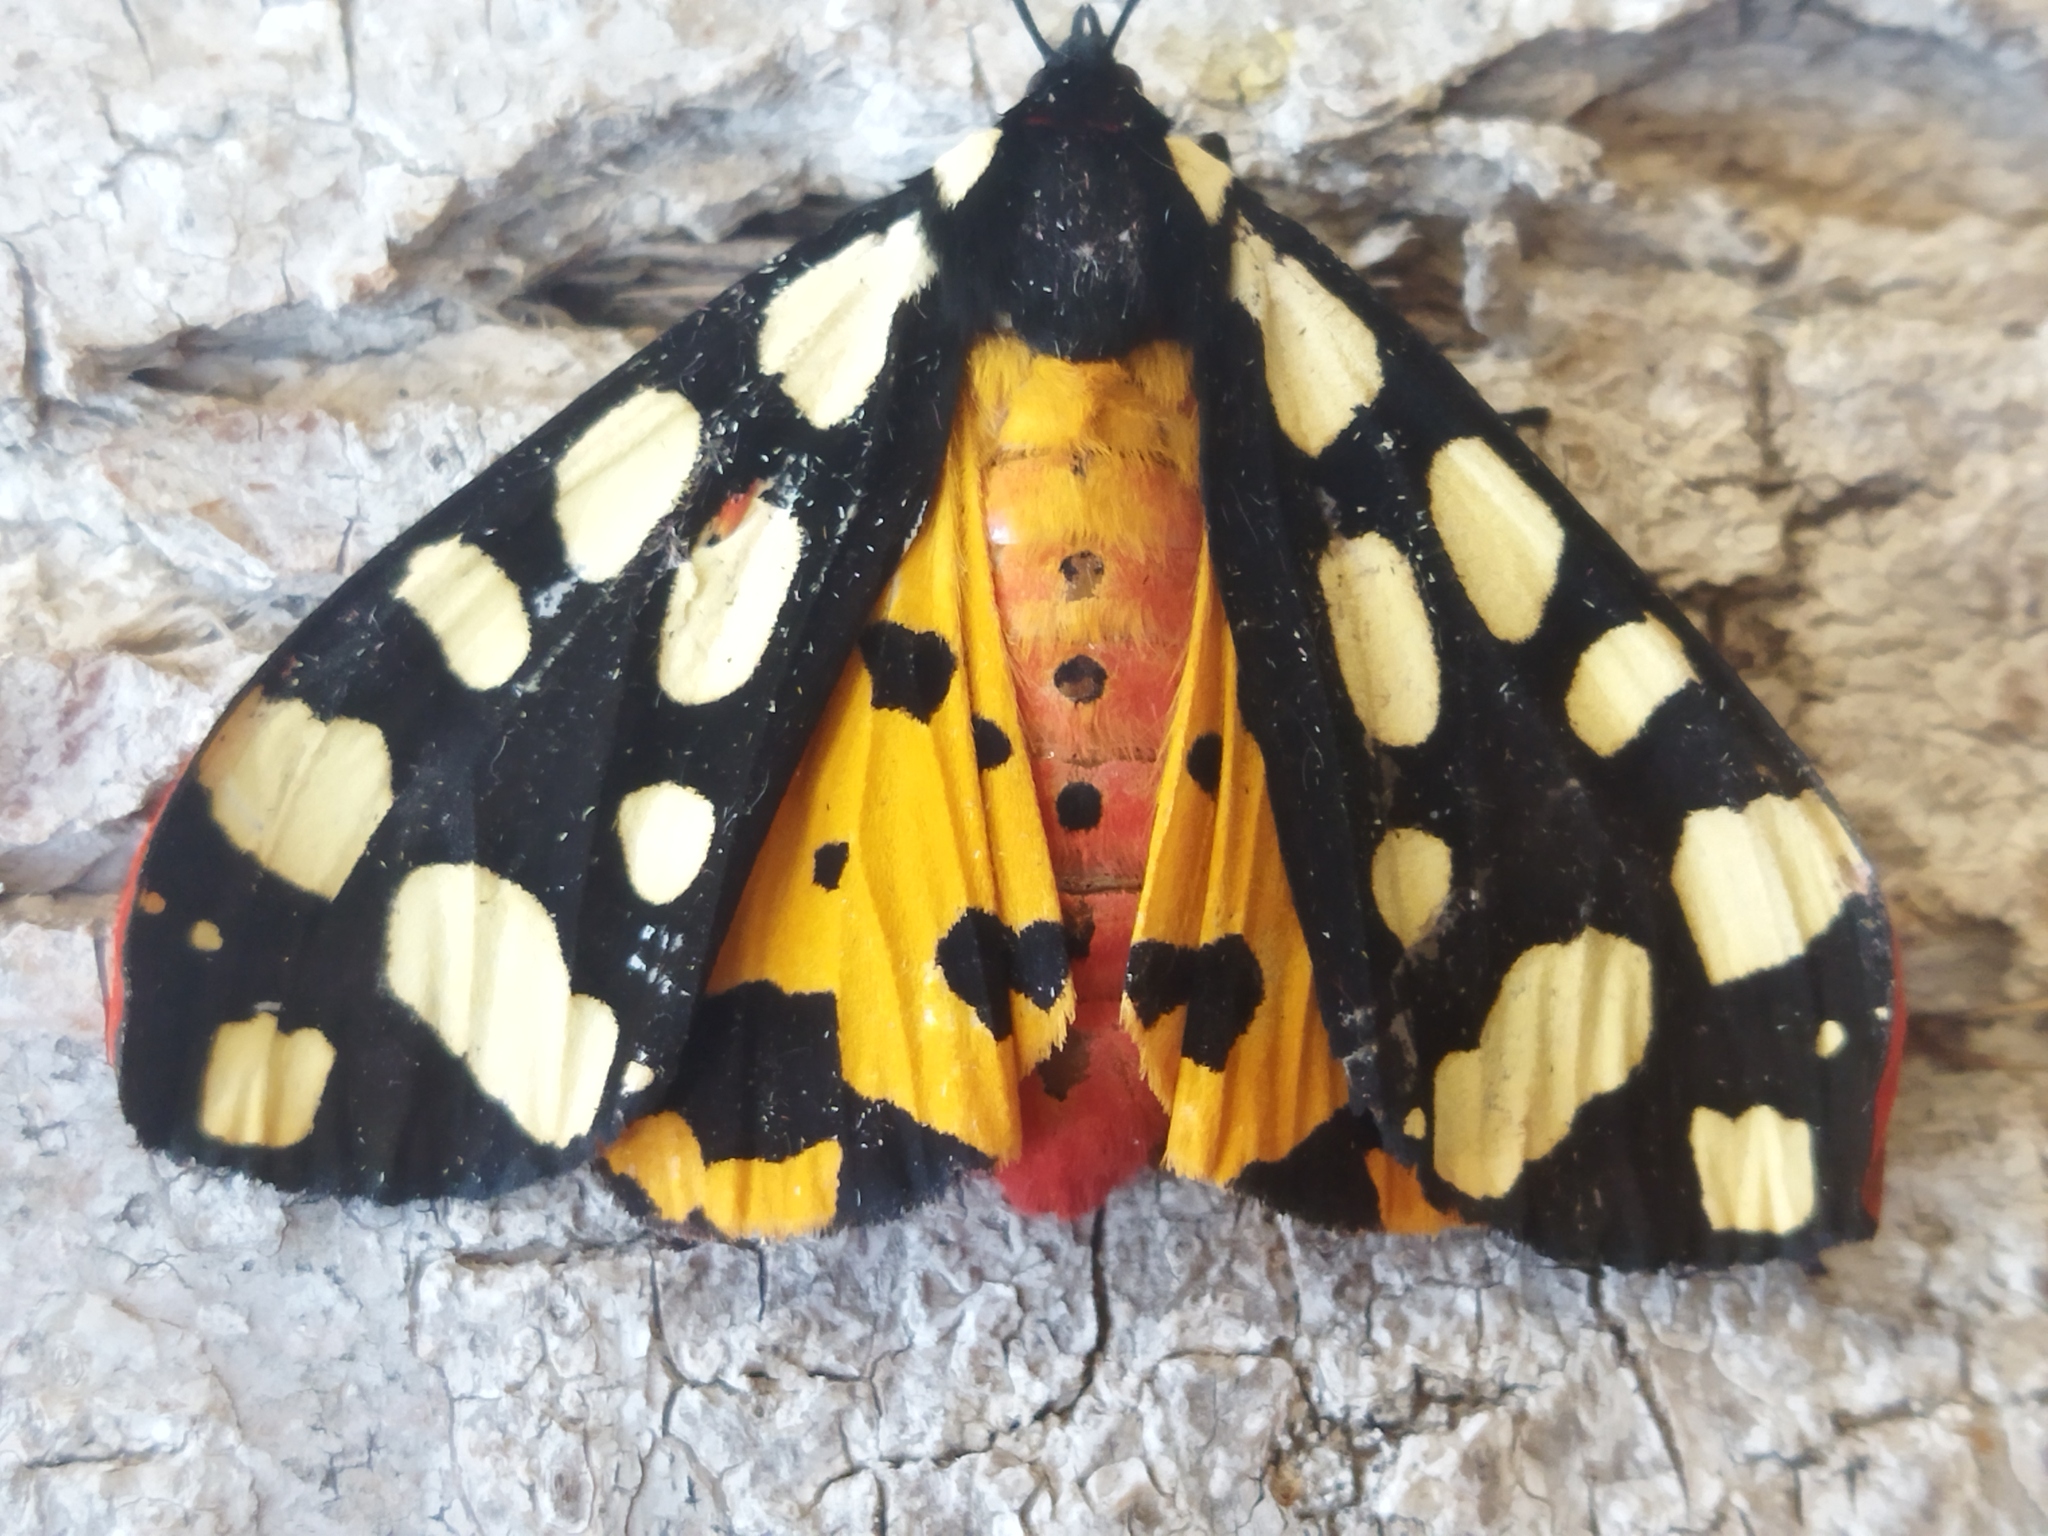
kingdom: Animalia
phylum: Arthropoda
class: Insecta
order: Lepidoptera
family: Erebidae
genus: Epicallia
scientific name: Epicallia villica
